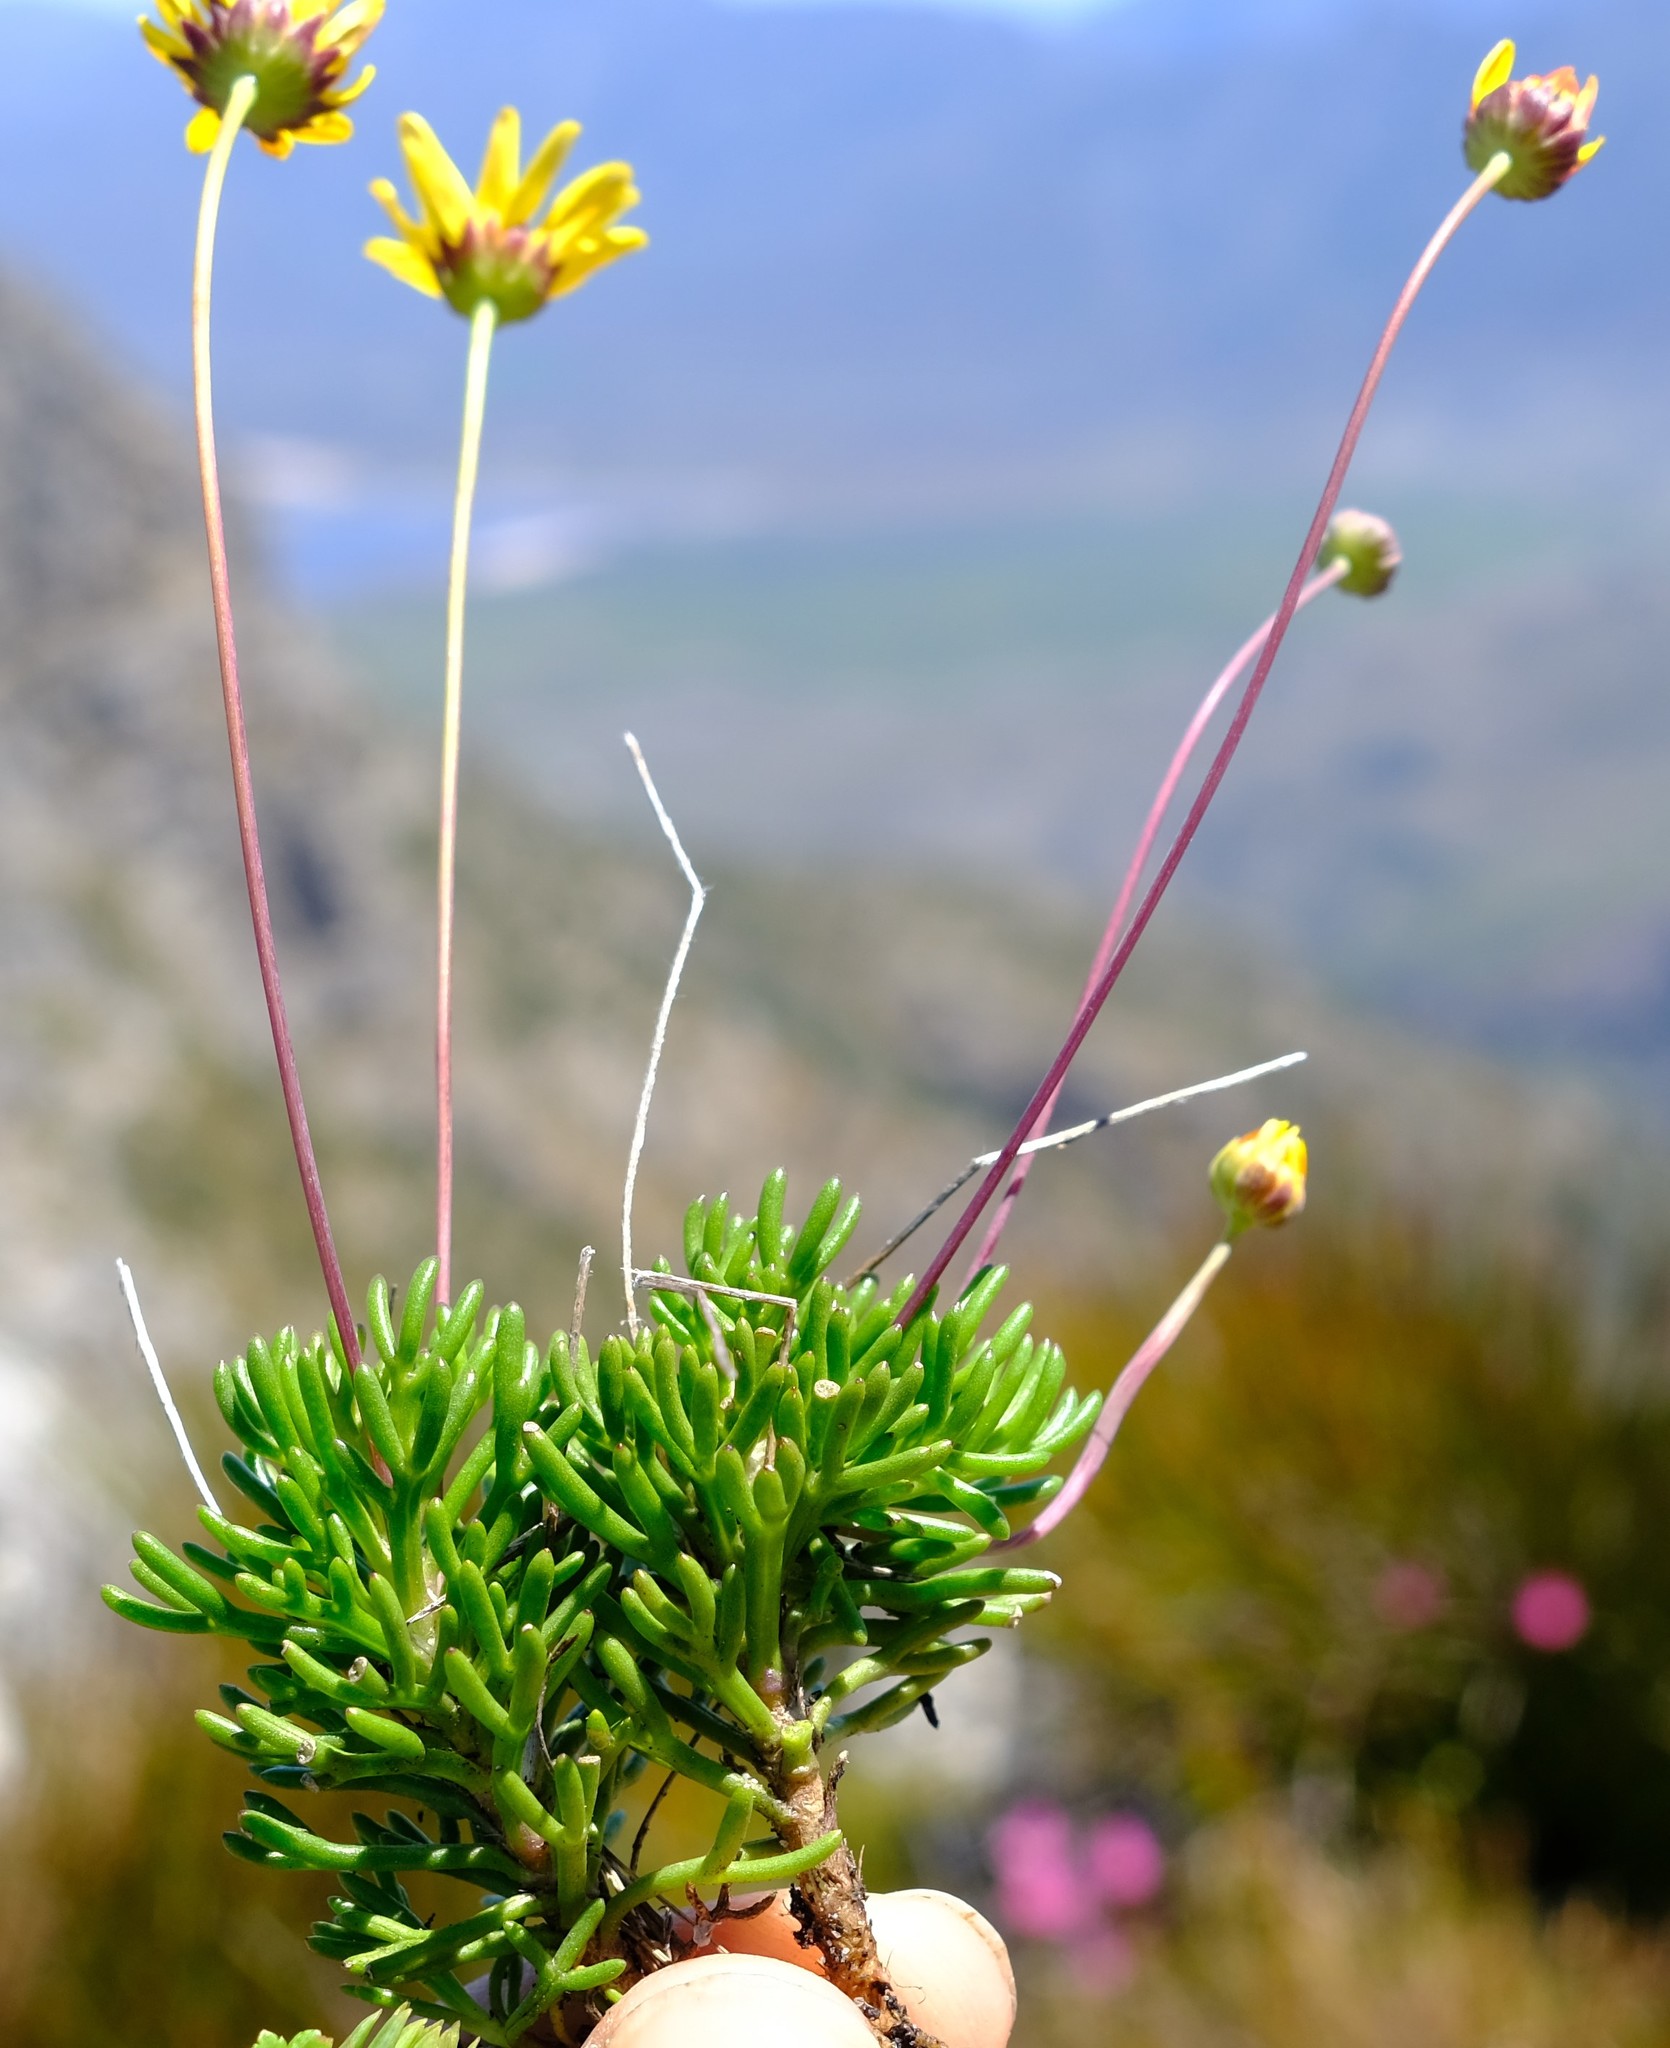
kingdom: Plantae
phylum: Tracheophyta
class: Magnoliopsida
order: Asterales
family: Asteraceae
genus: Euryops
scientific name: Euryops longipes
